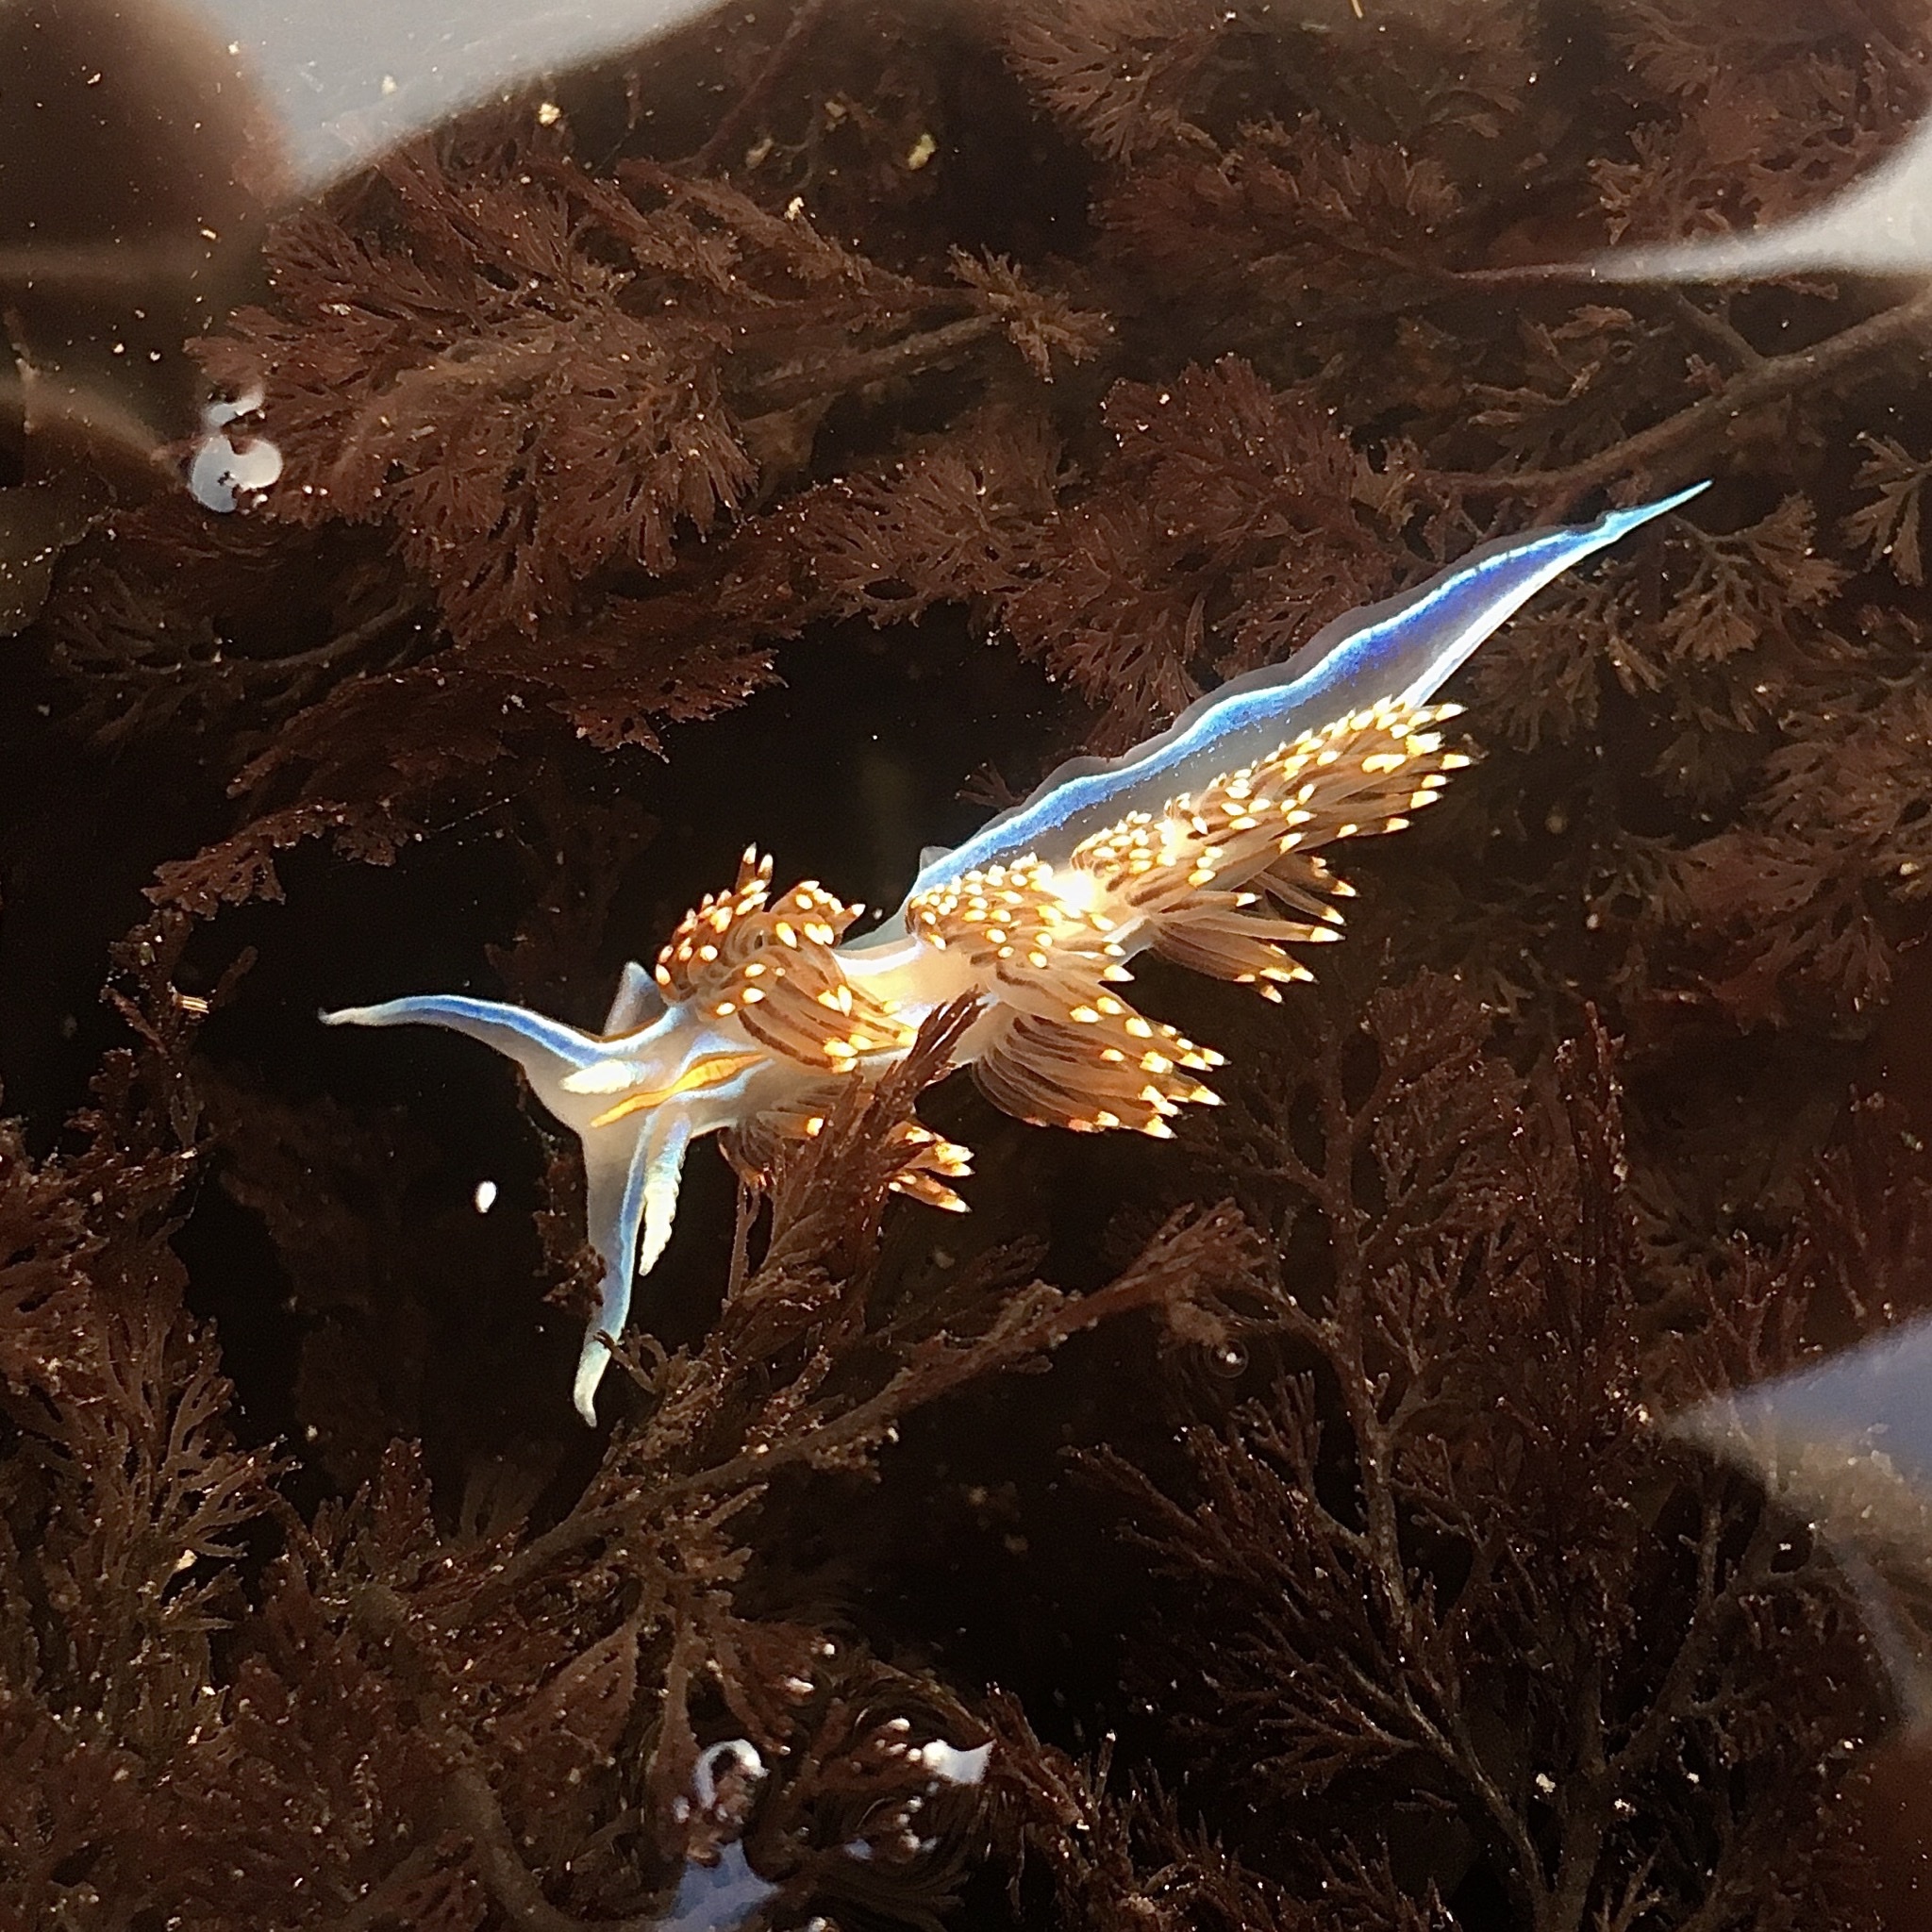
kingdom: Animalia
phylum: Mollusca
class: Gastropoda
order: Nudibranchia
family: Myrrhinidae
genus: Hermissenda
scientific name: Hermissenda opalescens
